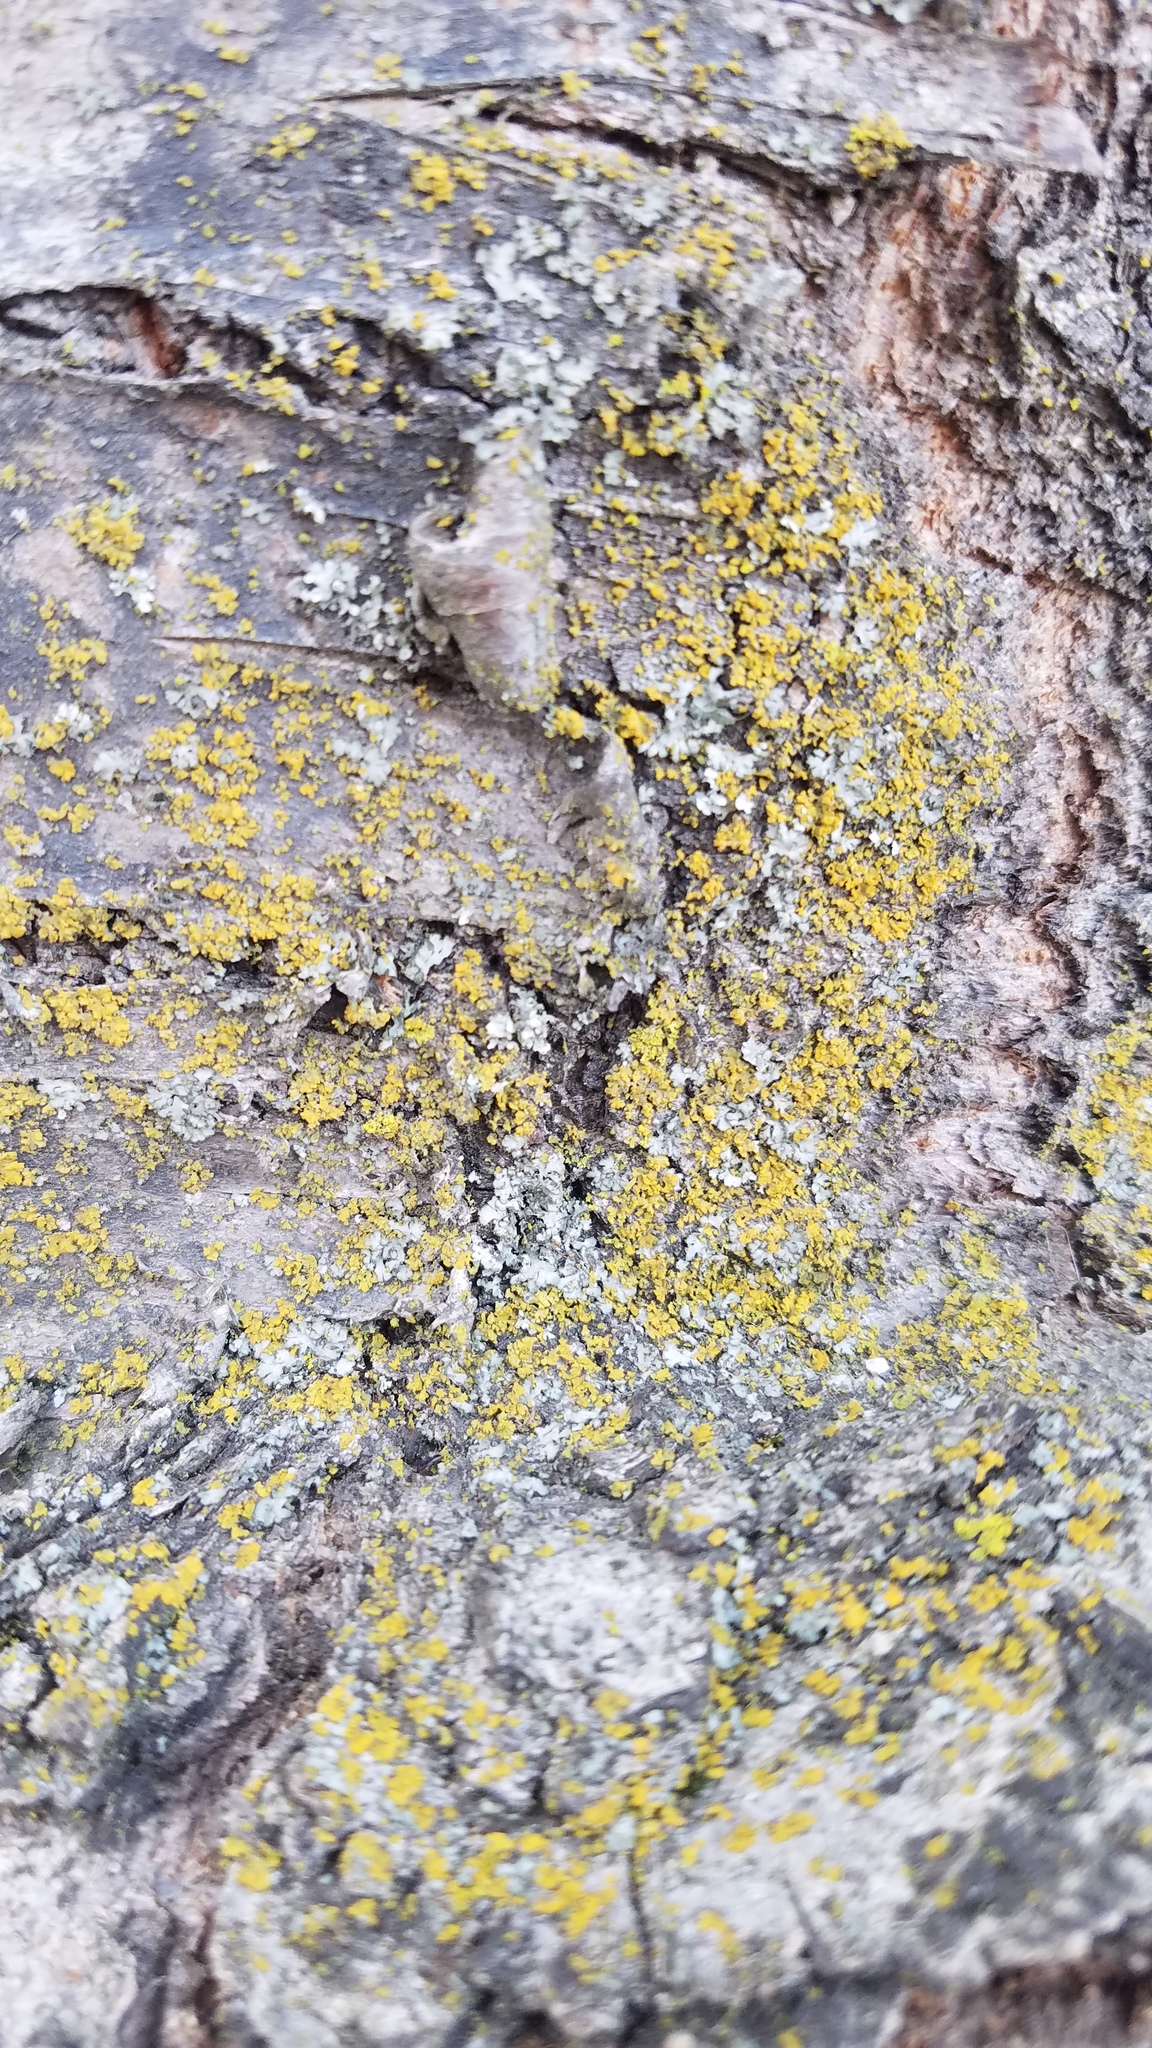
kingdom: Fungi
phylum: Ascomycota
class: Candelariomycetes
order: Candelariales
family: Candelariaceae
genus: Candelaria
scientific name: Candelaria concolor
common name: Candleflame lichen
